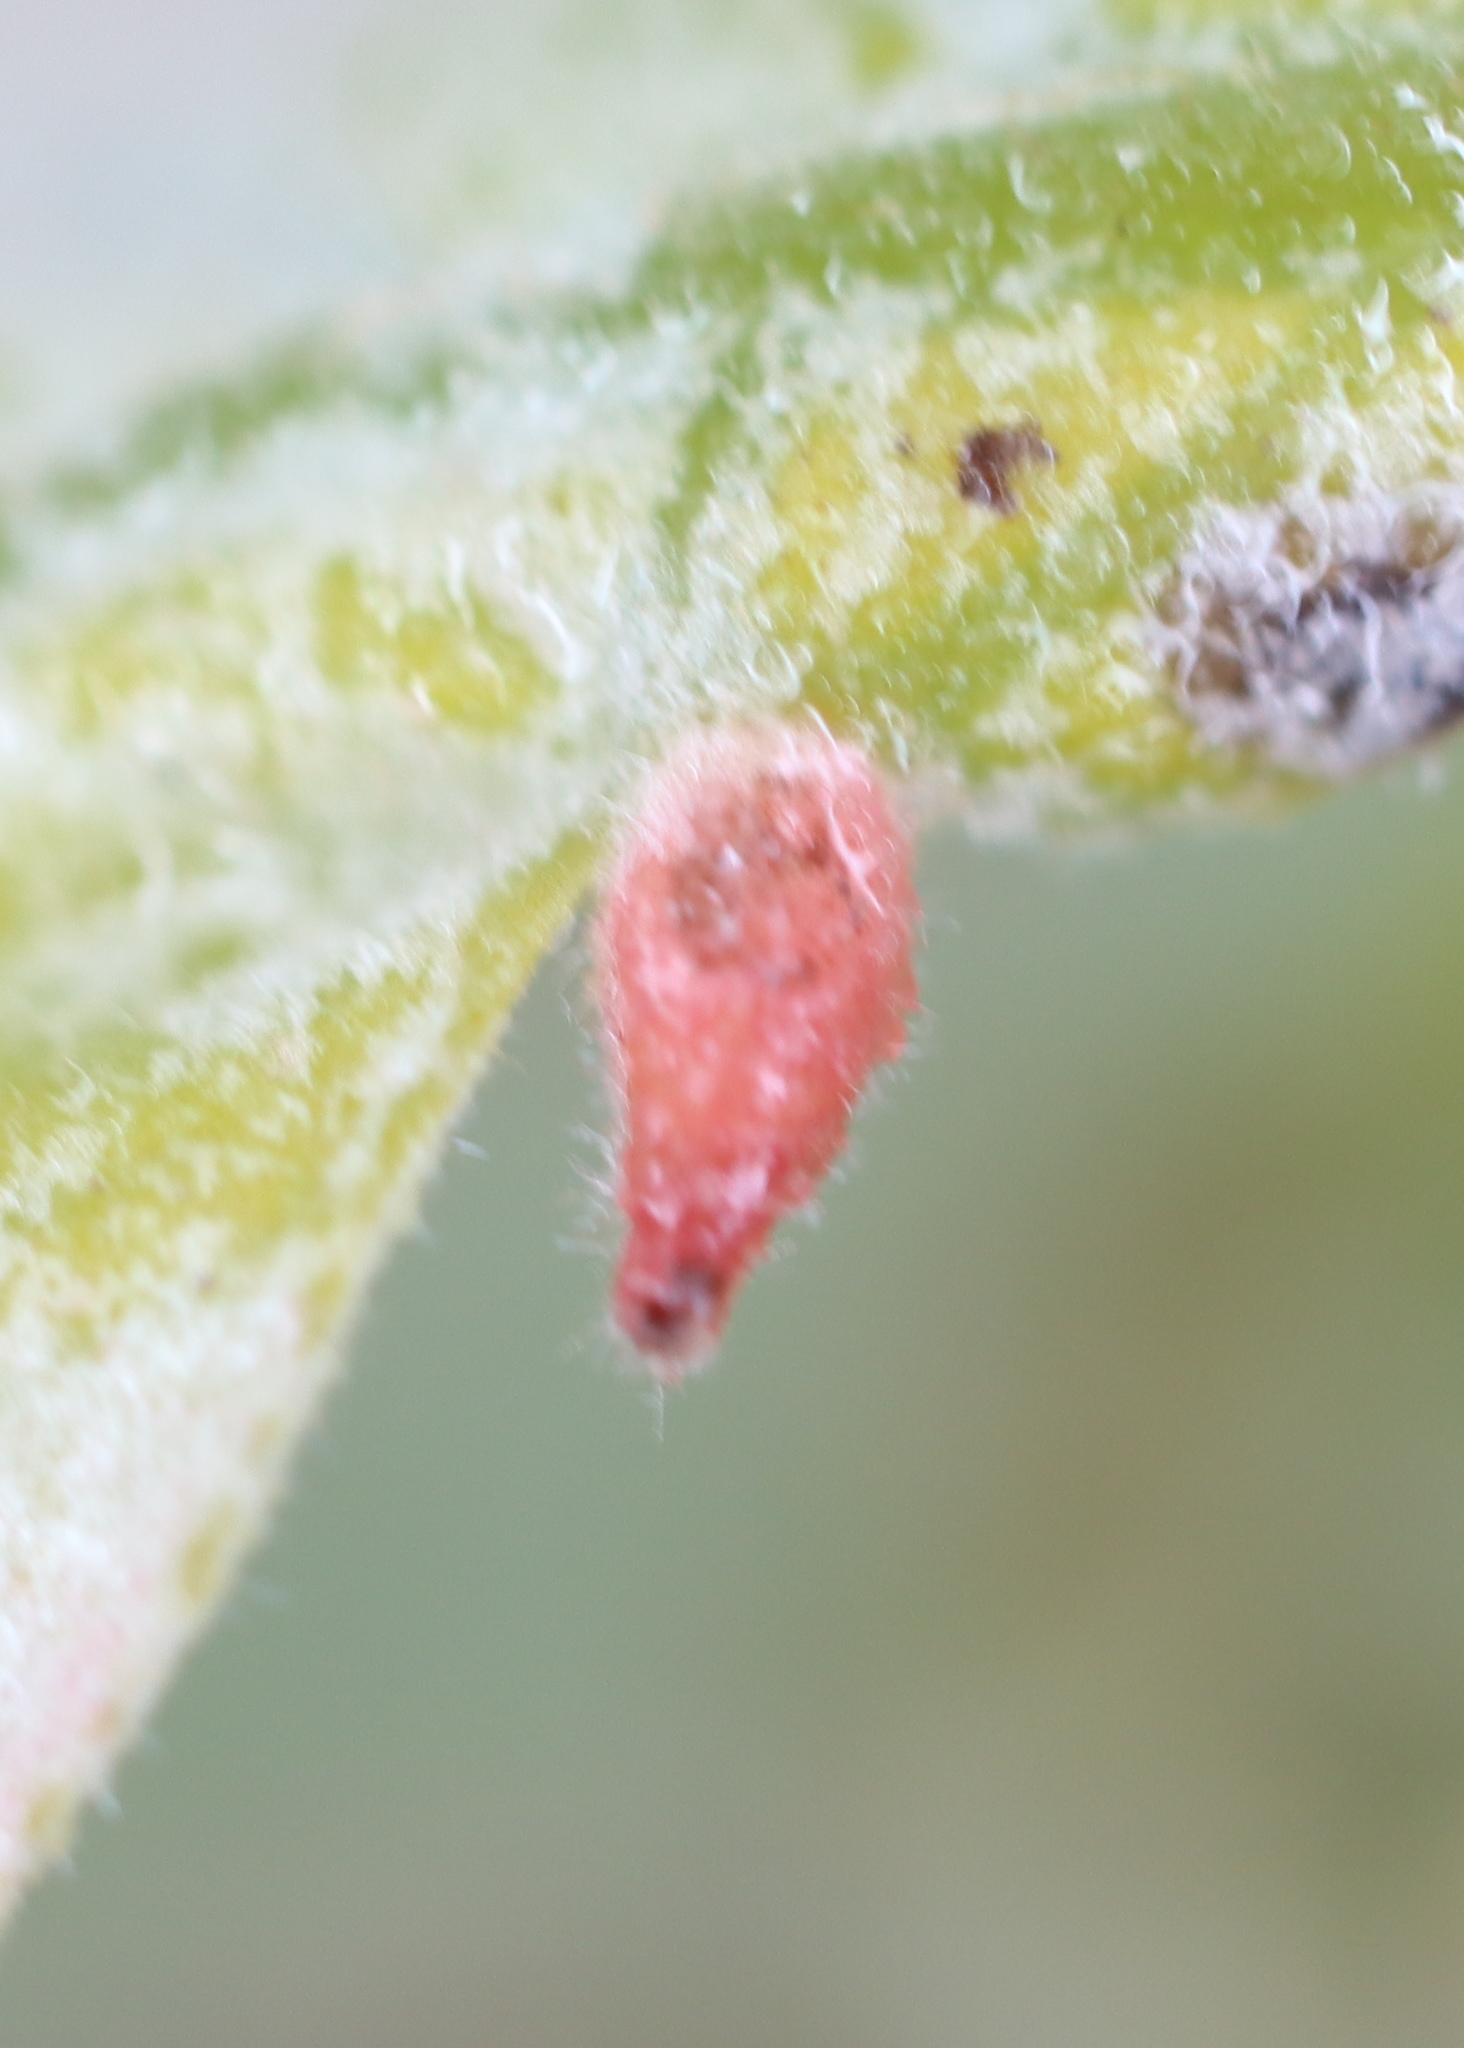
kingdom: Animalia
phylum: Arthropoda
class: Insecta
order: Hymenoptera
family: Cynipidae
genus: Andricus
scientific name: Andricus
